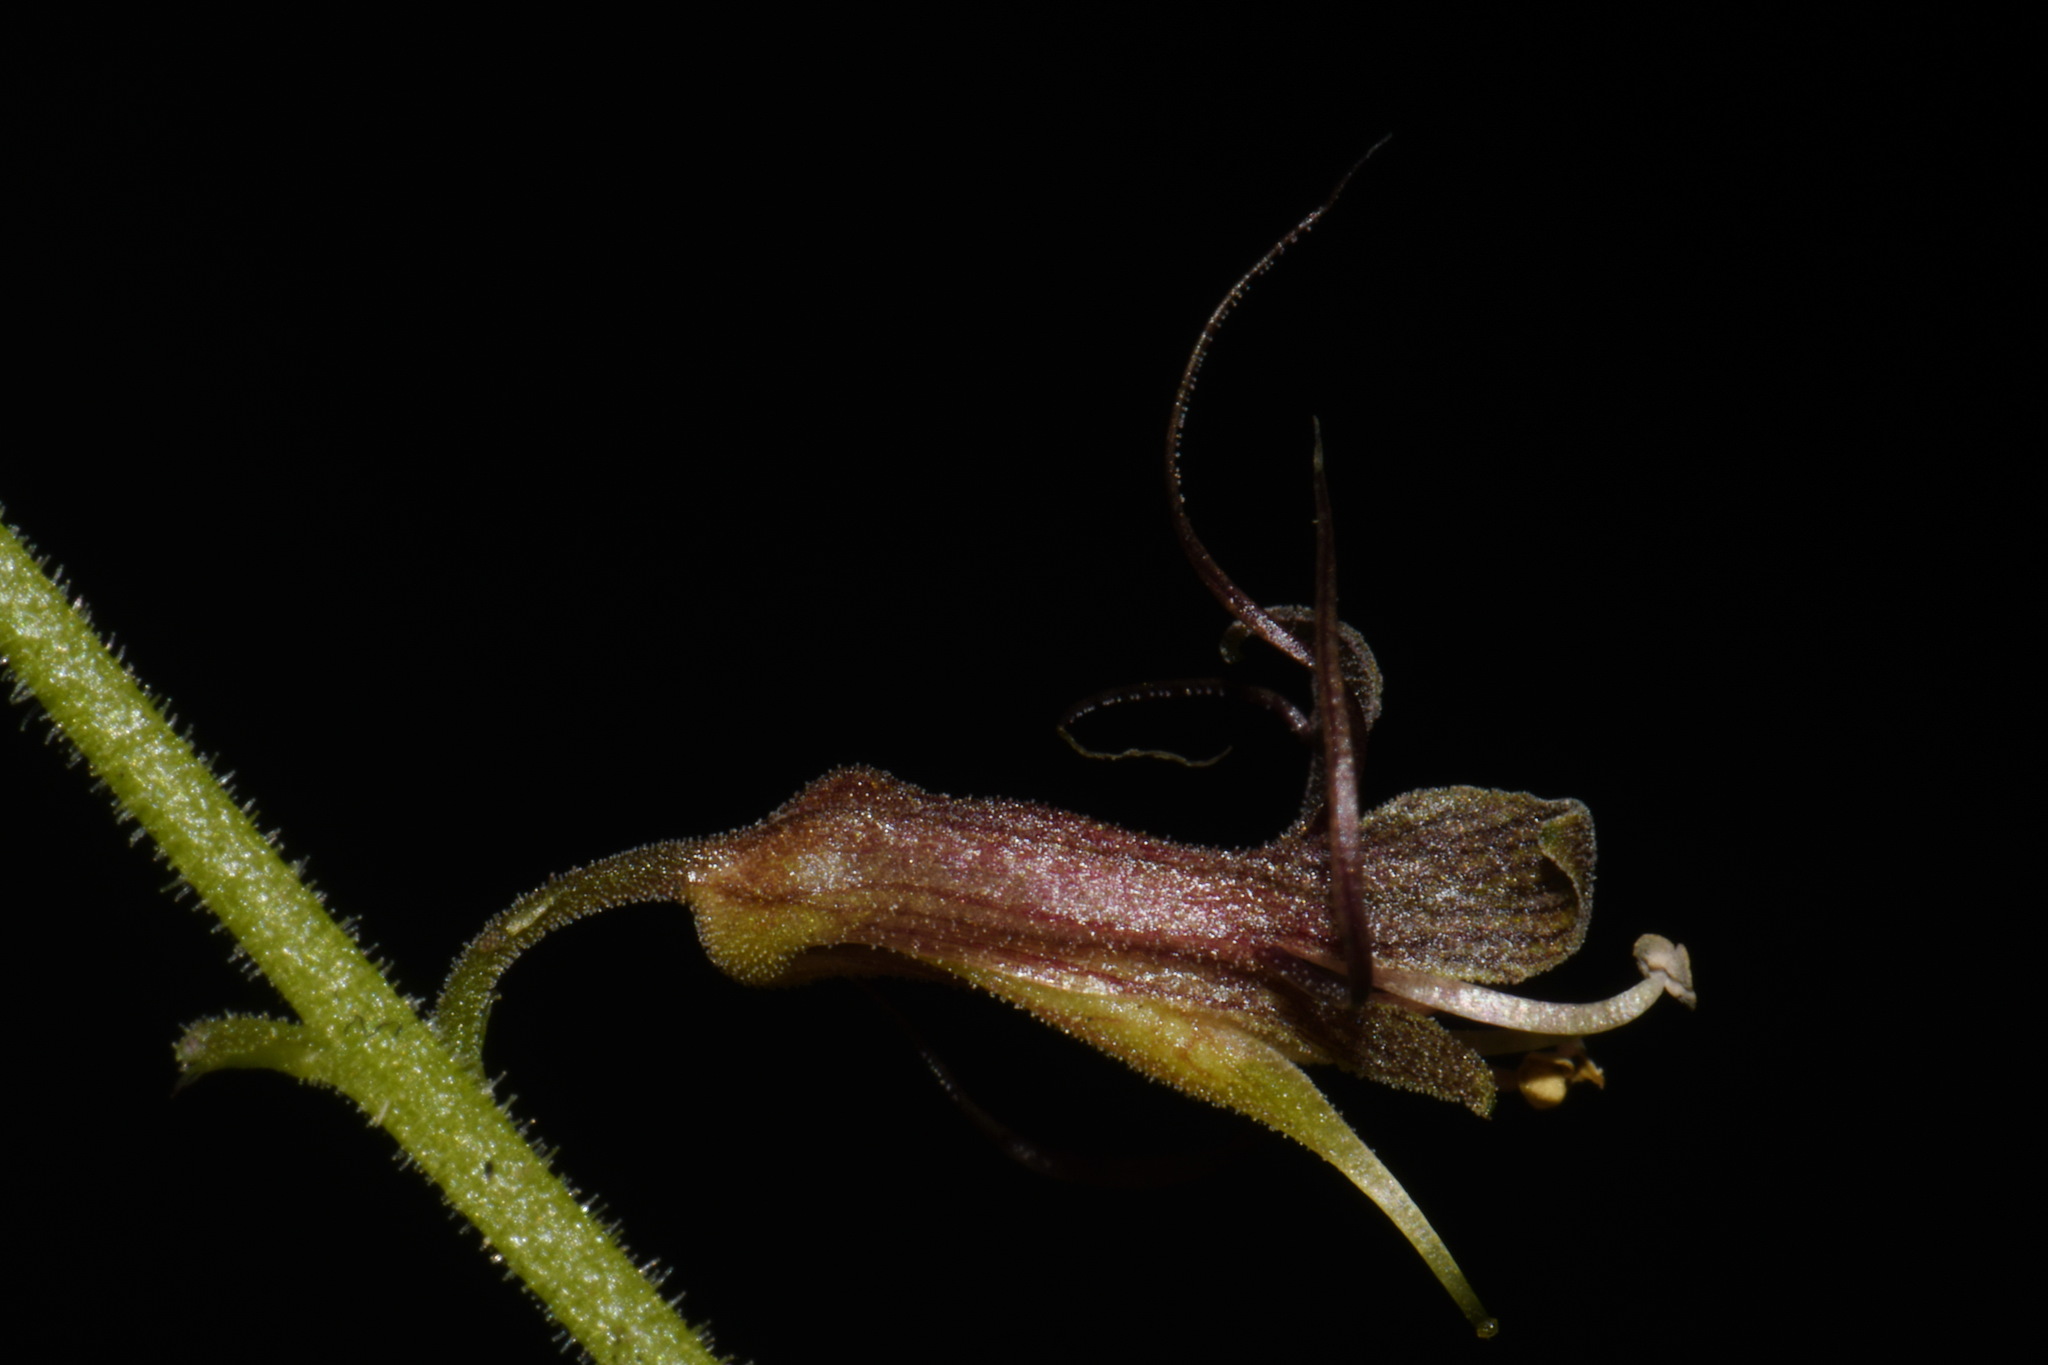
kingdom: Plantae
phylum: Tracheophyta
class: Magnoliopsida
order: Saxifragales
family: Saxifragaceae
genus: Tolmiea
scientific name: Tolmiea menziesii
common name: Pick-a-back-plant
